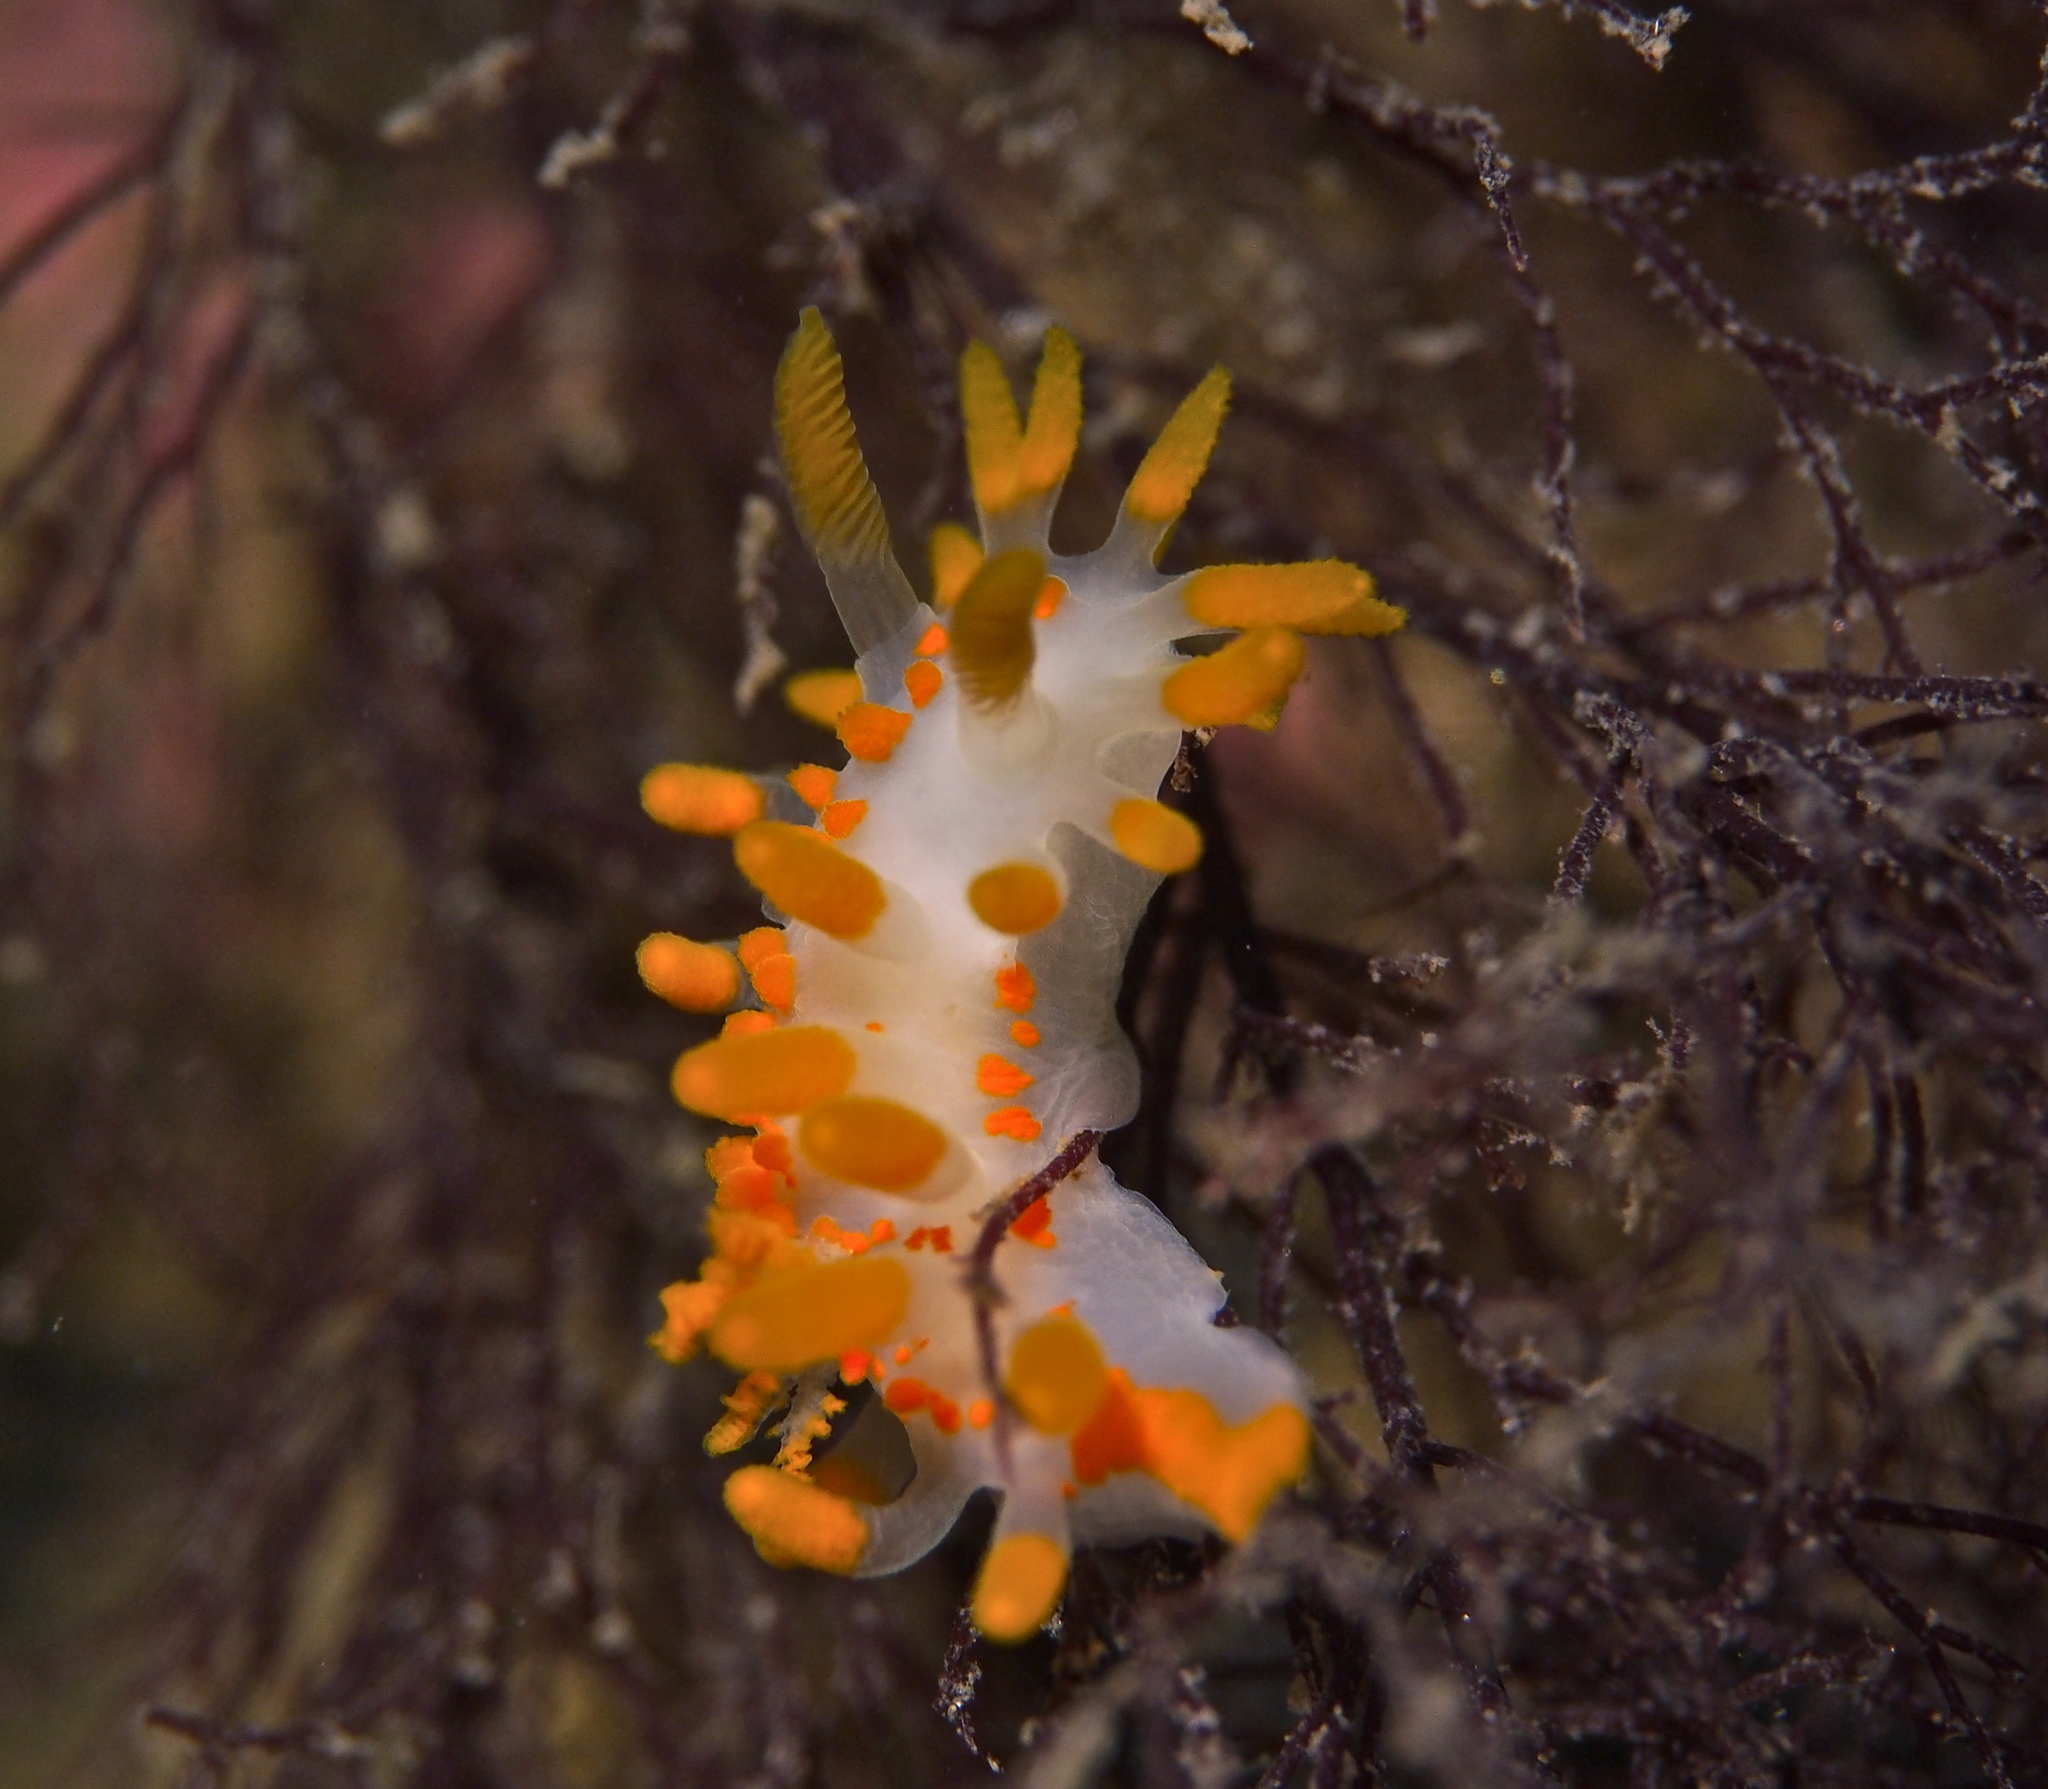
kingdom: Animalia
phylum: Mollusca
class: Gastropoda
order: Nudibranchia
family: Polyceridae
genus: Limacia
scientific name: Limacia clavigera
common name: Orange-clubbed sea slug
